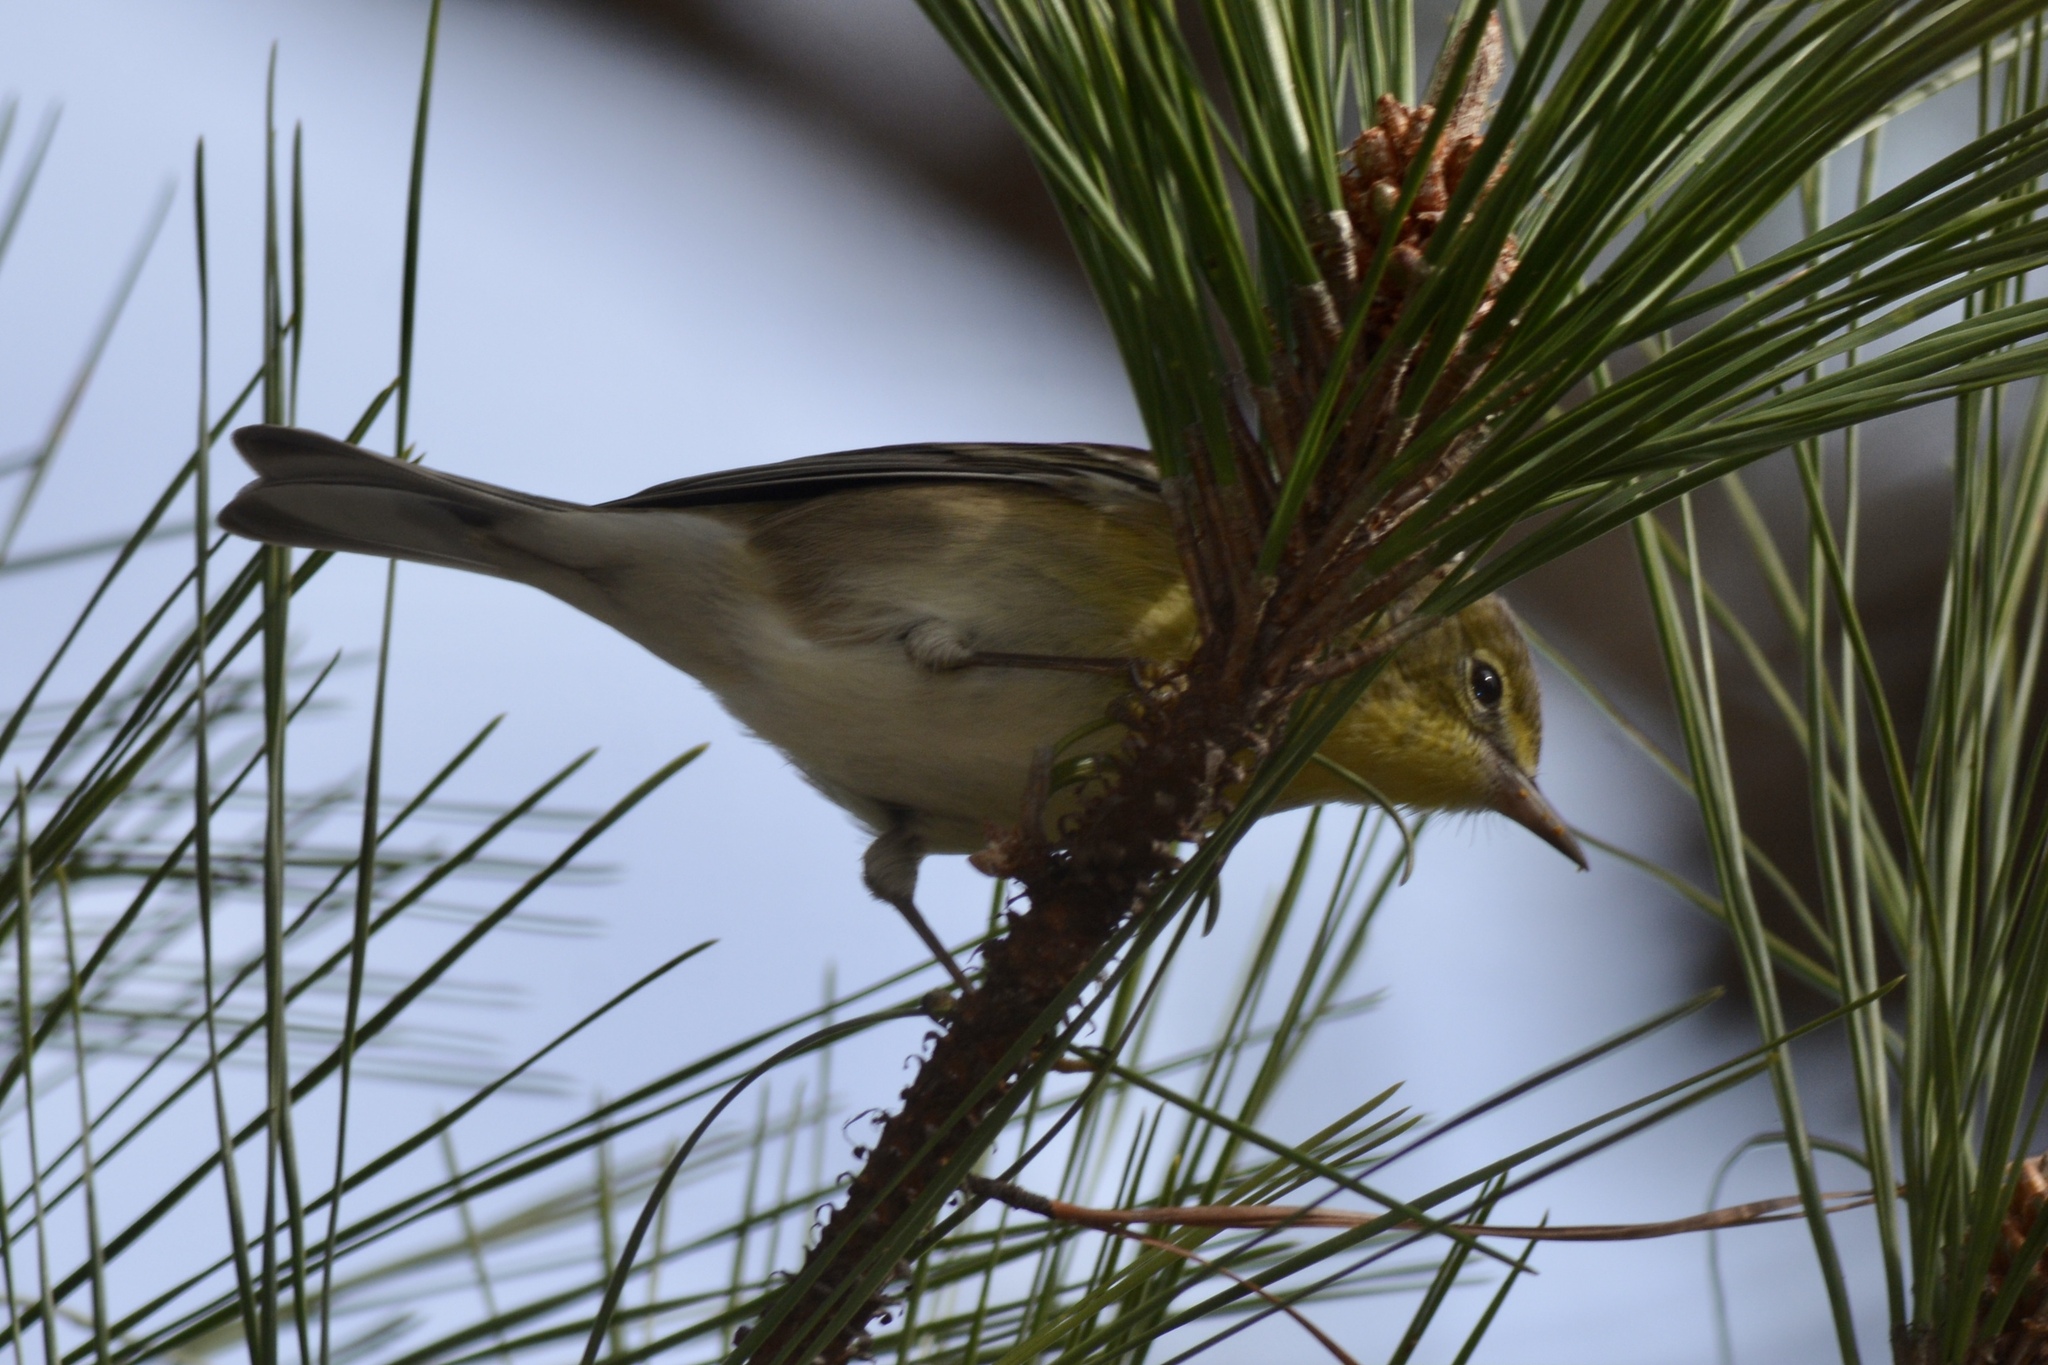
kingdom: Animalia
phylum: Chordata
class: Aves
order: Passeriformes
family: Parulidae
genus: Setophaga
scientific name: Setophaga pinus
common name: Pine warbler
